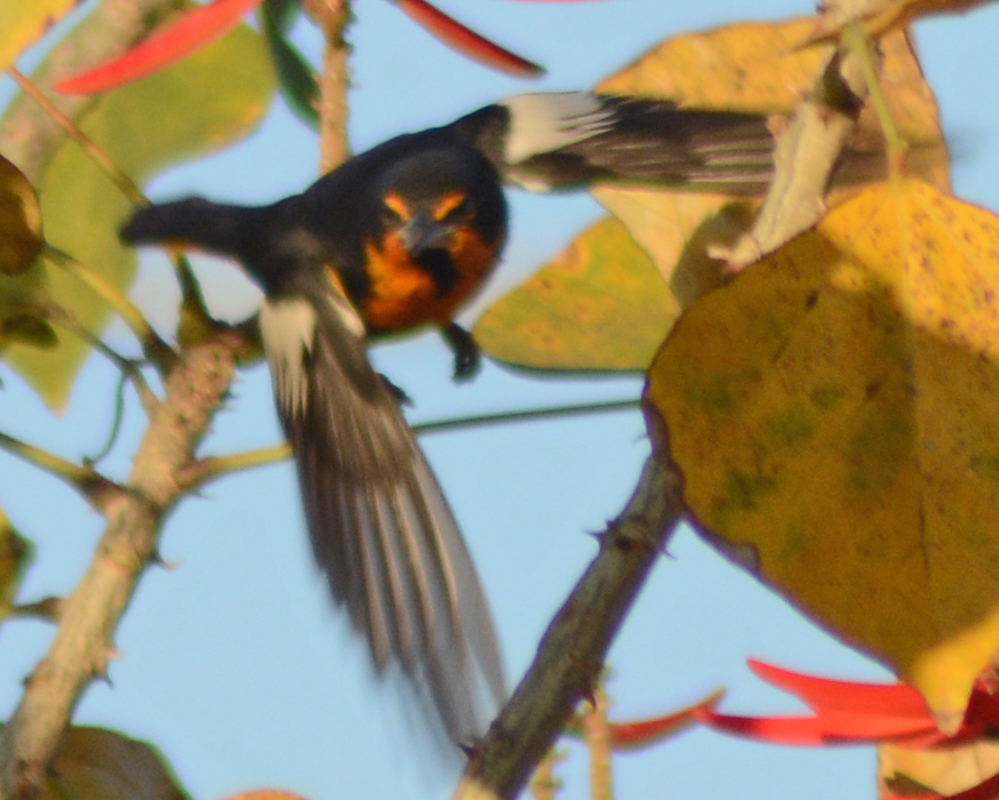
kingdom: Animalia
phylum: Chordata
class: Aves
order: Passeriformes
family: Icteridae
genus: Icterus
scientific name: Icterus abeillei
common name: Black-backed oriole
